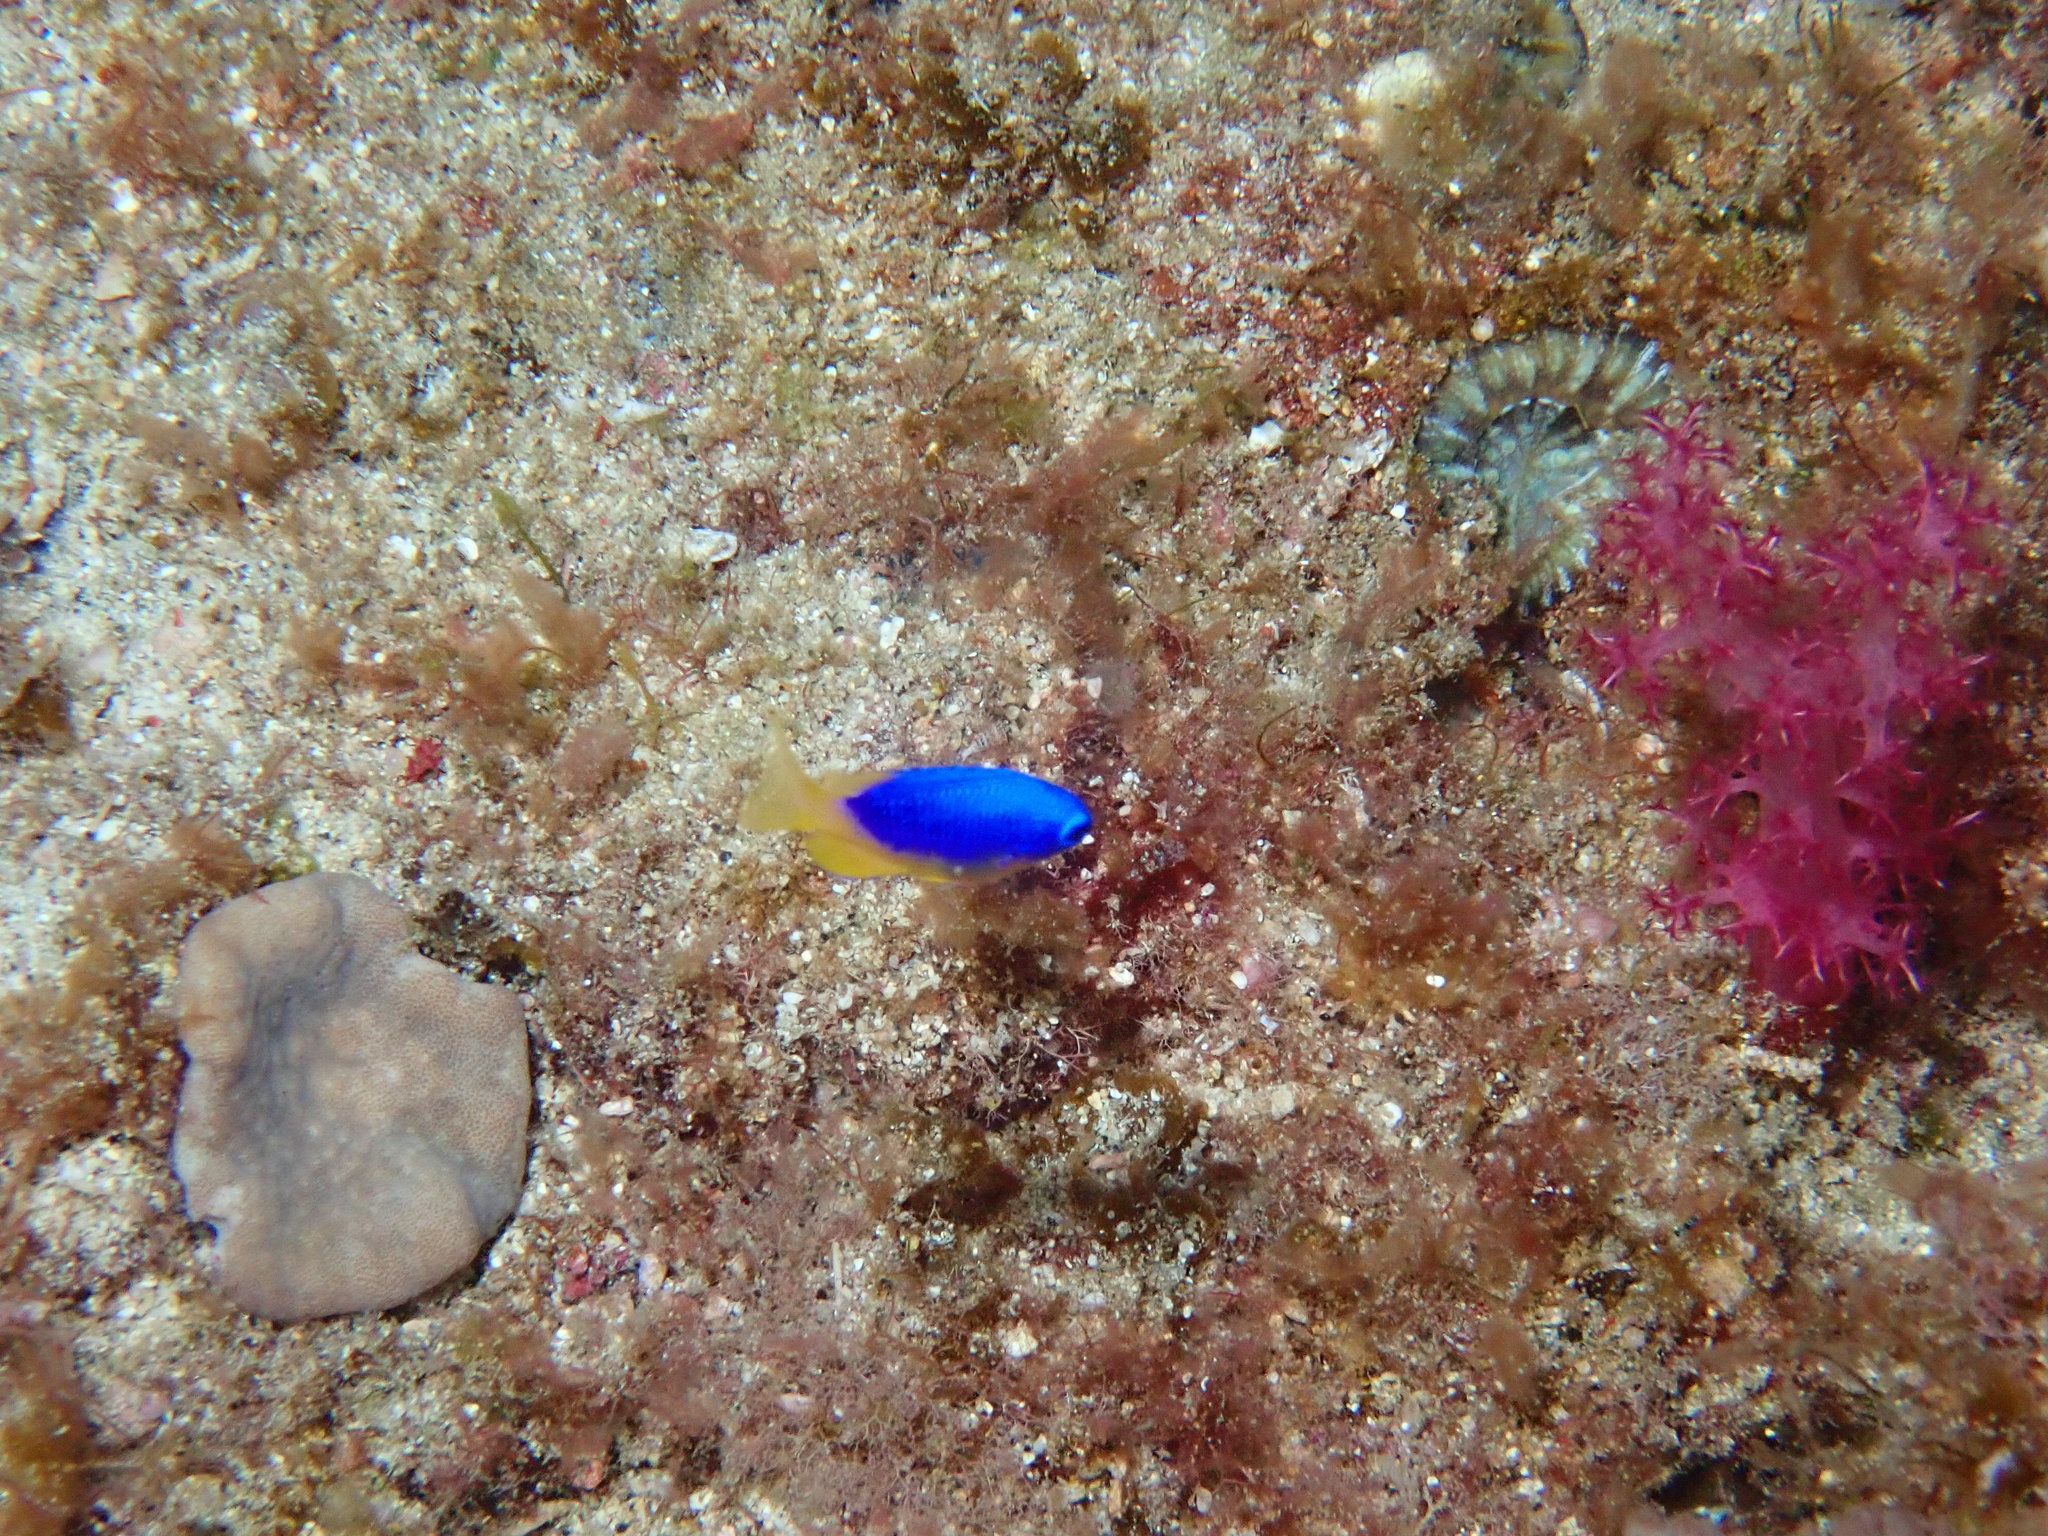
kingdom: Animalia
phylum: Chordata
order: Perciformes
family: Pomacentridae
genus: Pomacentrus
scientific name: Pomacentrus coelestis
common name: Neon damsel
